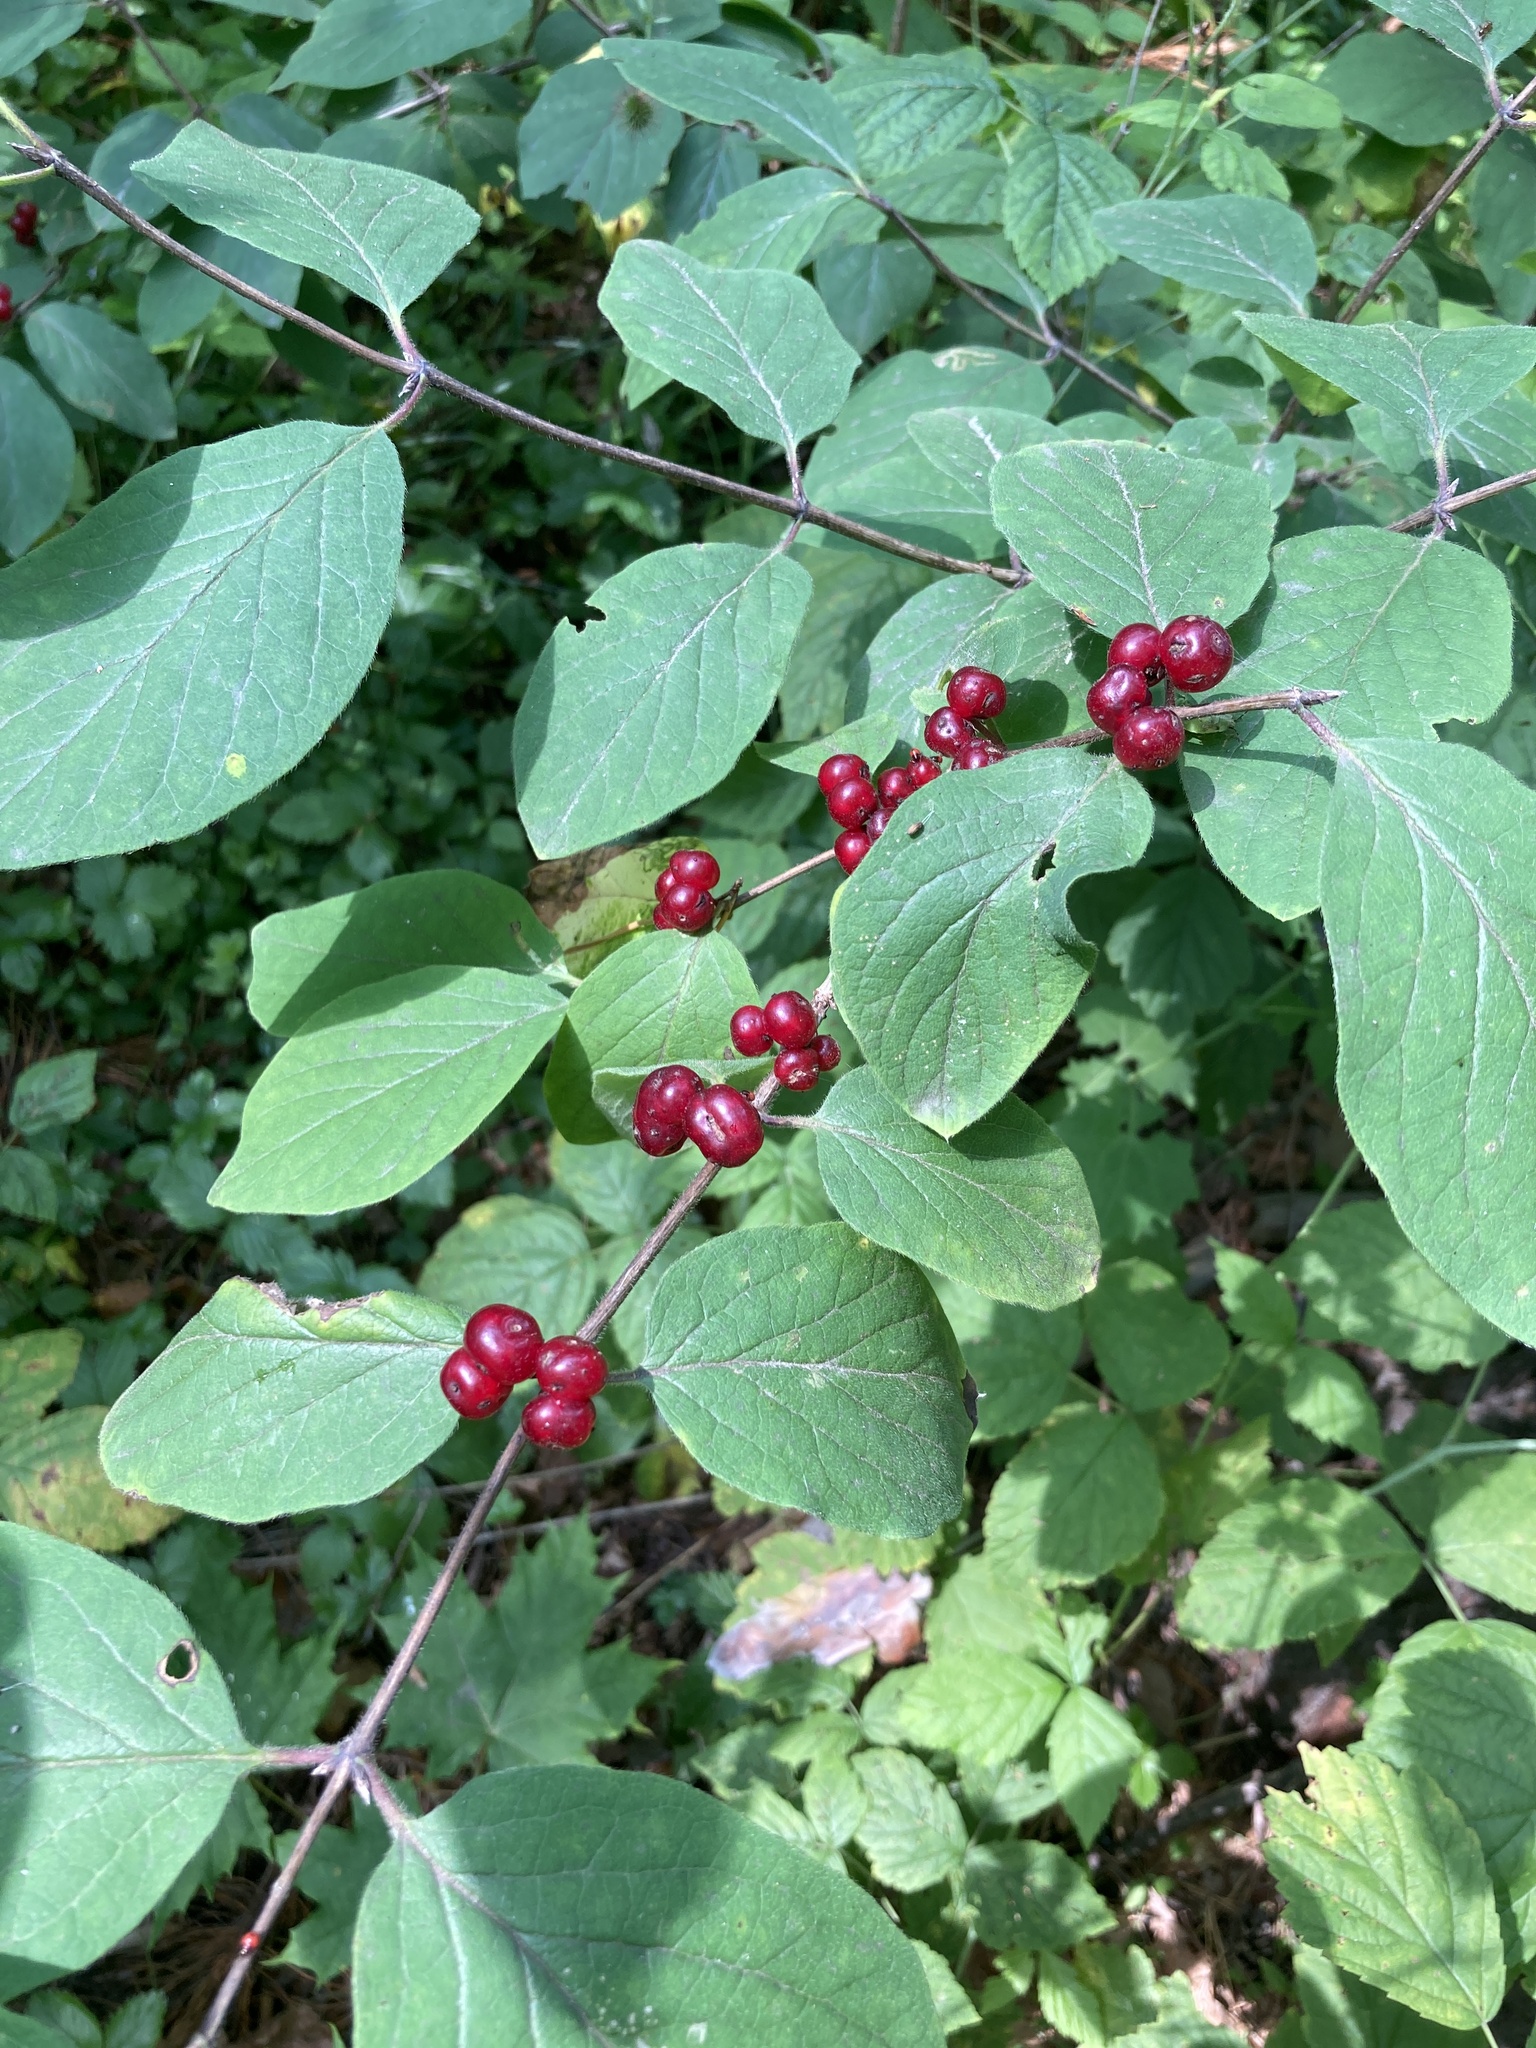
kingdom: Plantae
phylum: Tracheophyta
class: Magnoliopsida
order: Dipsacales
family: Caprifoliaceae
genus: Lonicera
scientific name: Lonicera xylosteum
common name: Fly honeysuckle
